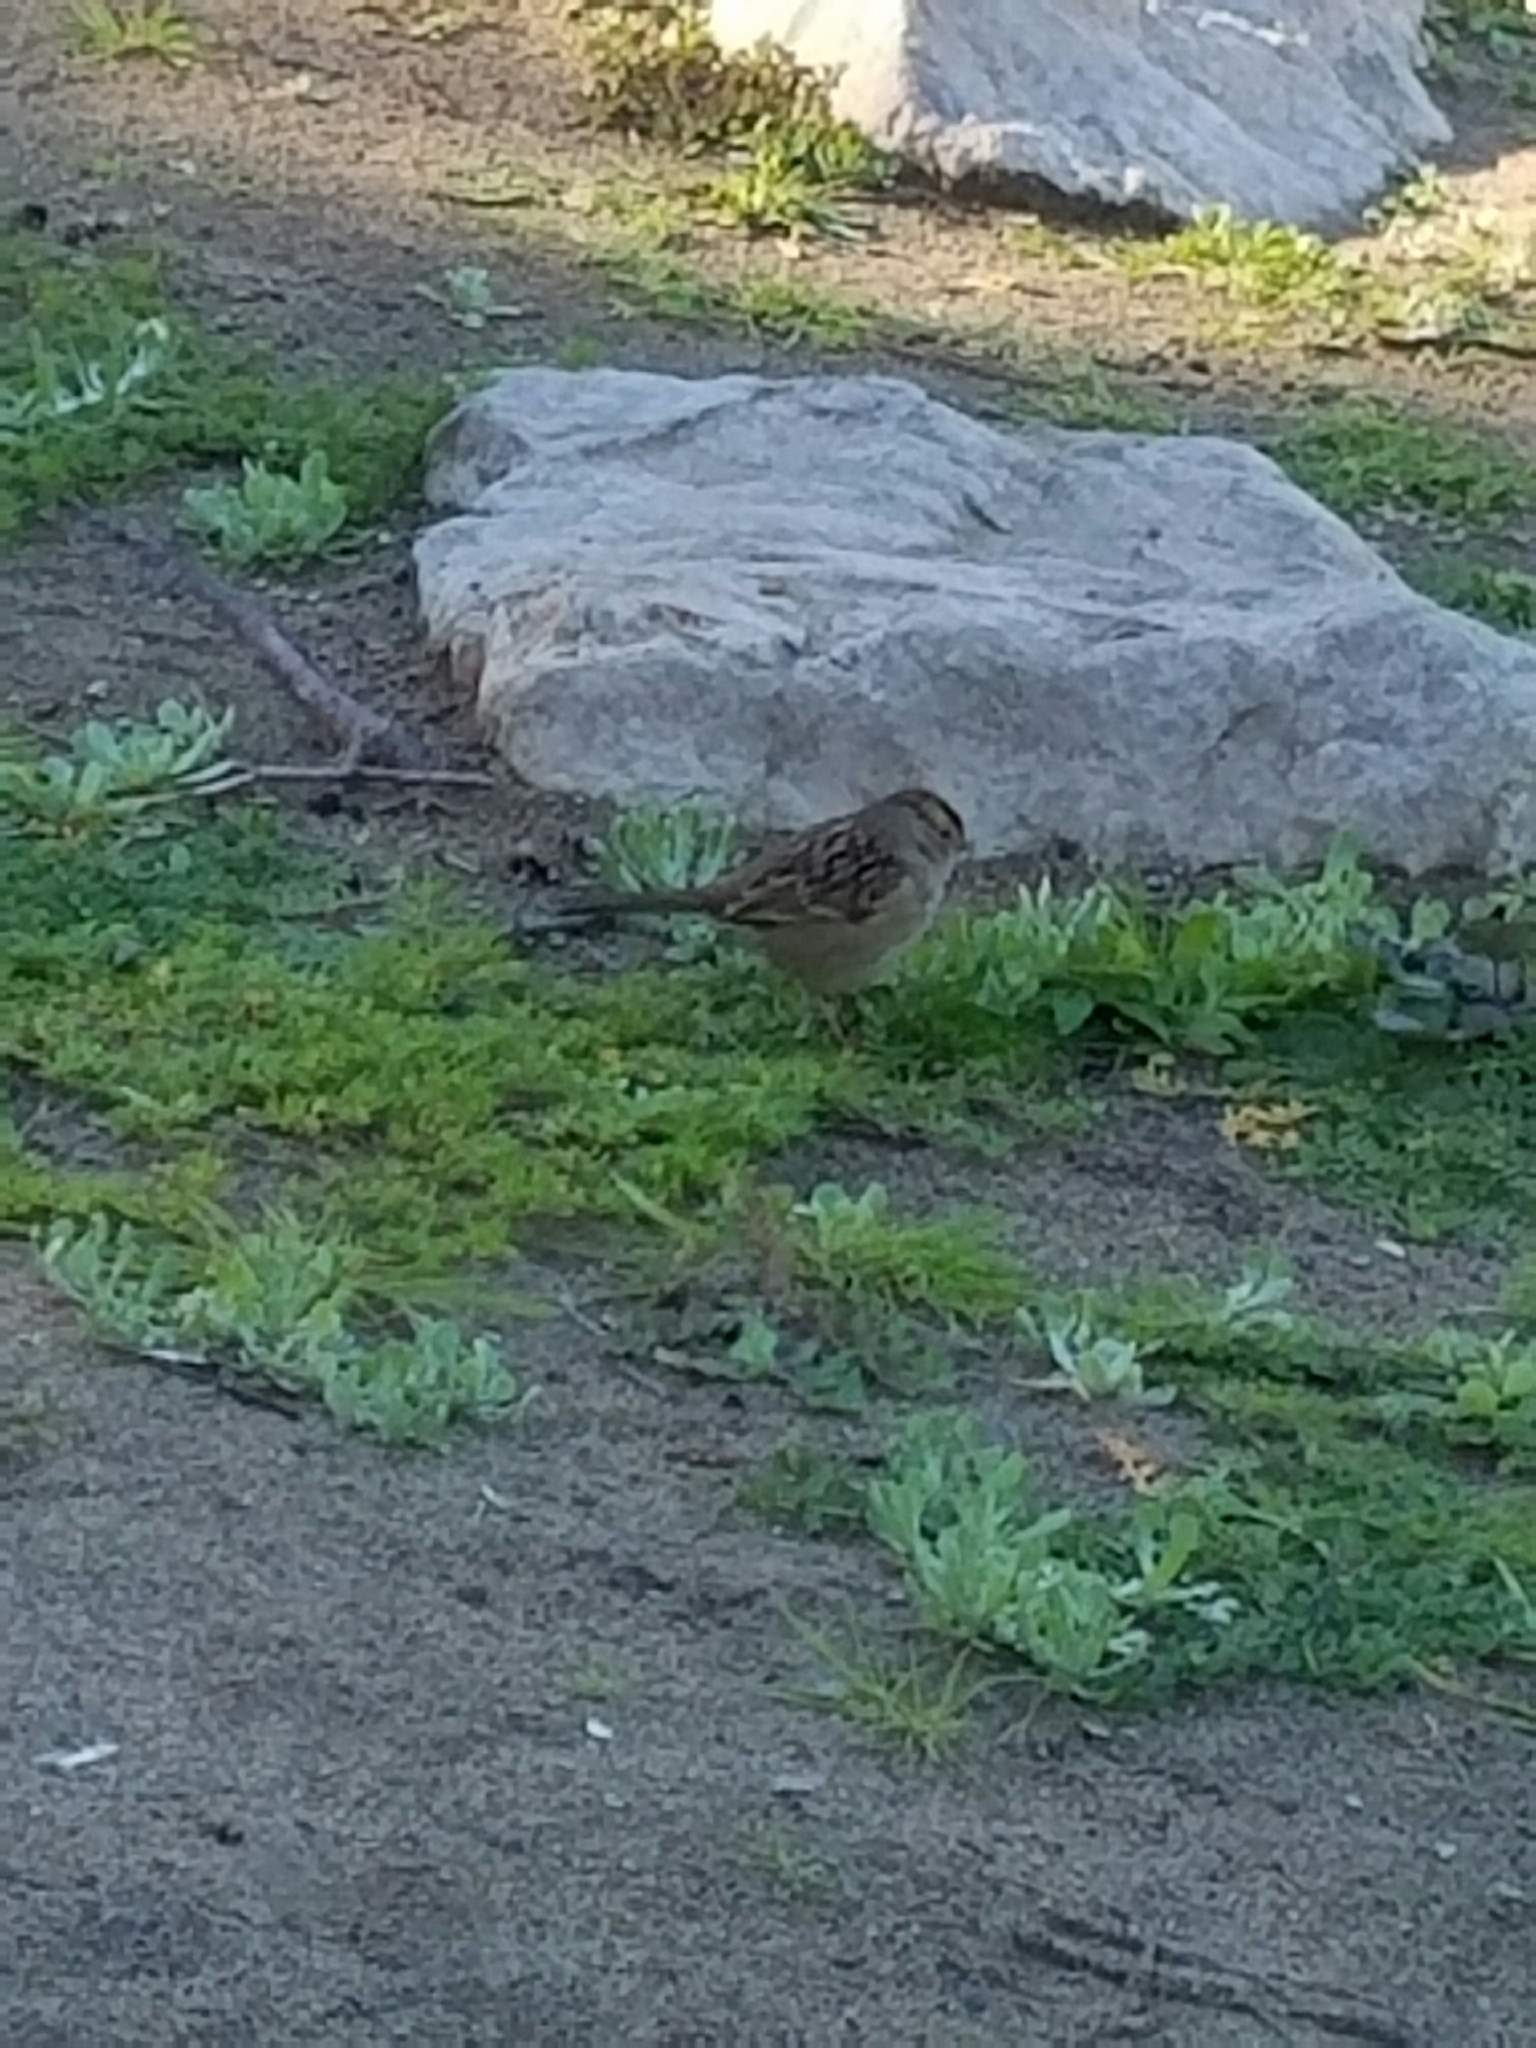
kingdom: Animalia
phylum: Chordata
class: Aves
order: Passeriformes
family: Passerellidae
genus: Zonotrichia
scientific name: Zonotrichia leucophrys
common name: White-crowned sparrow
